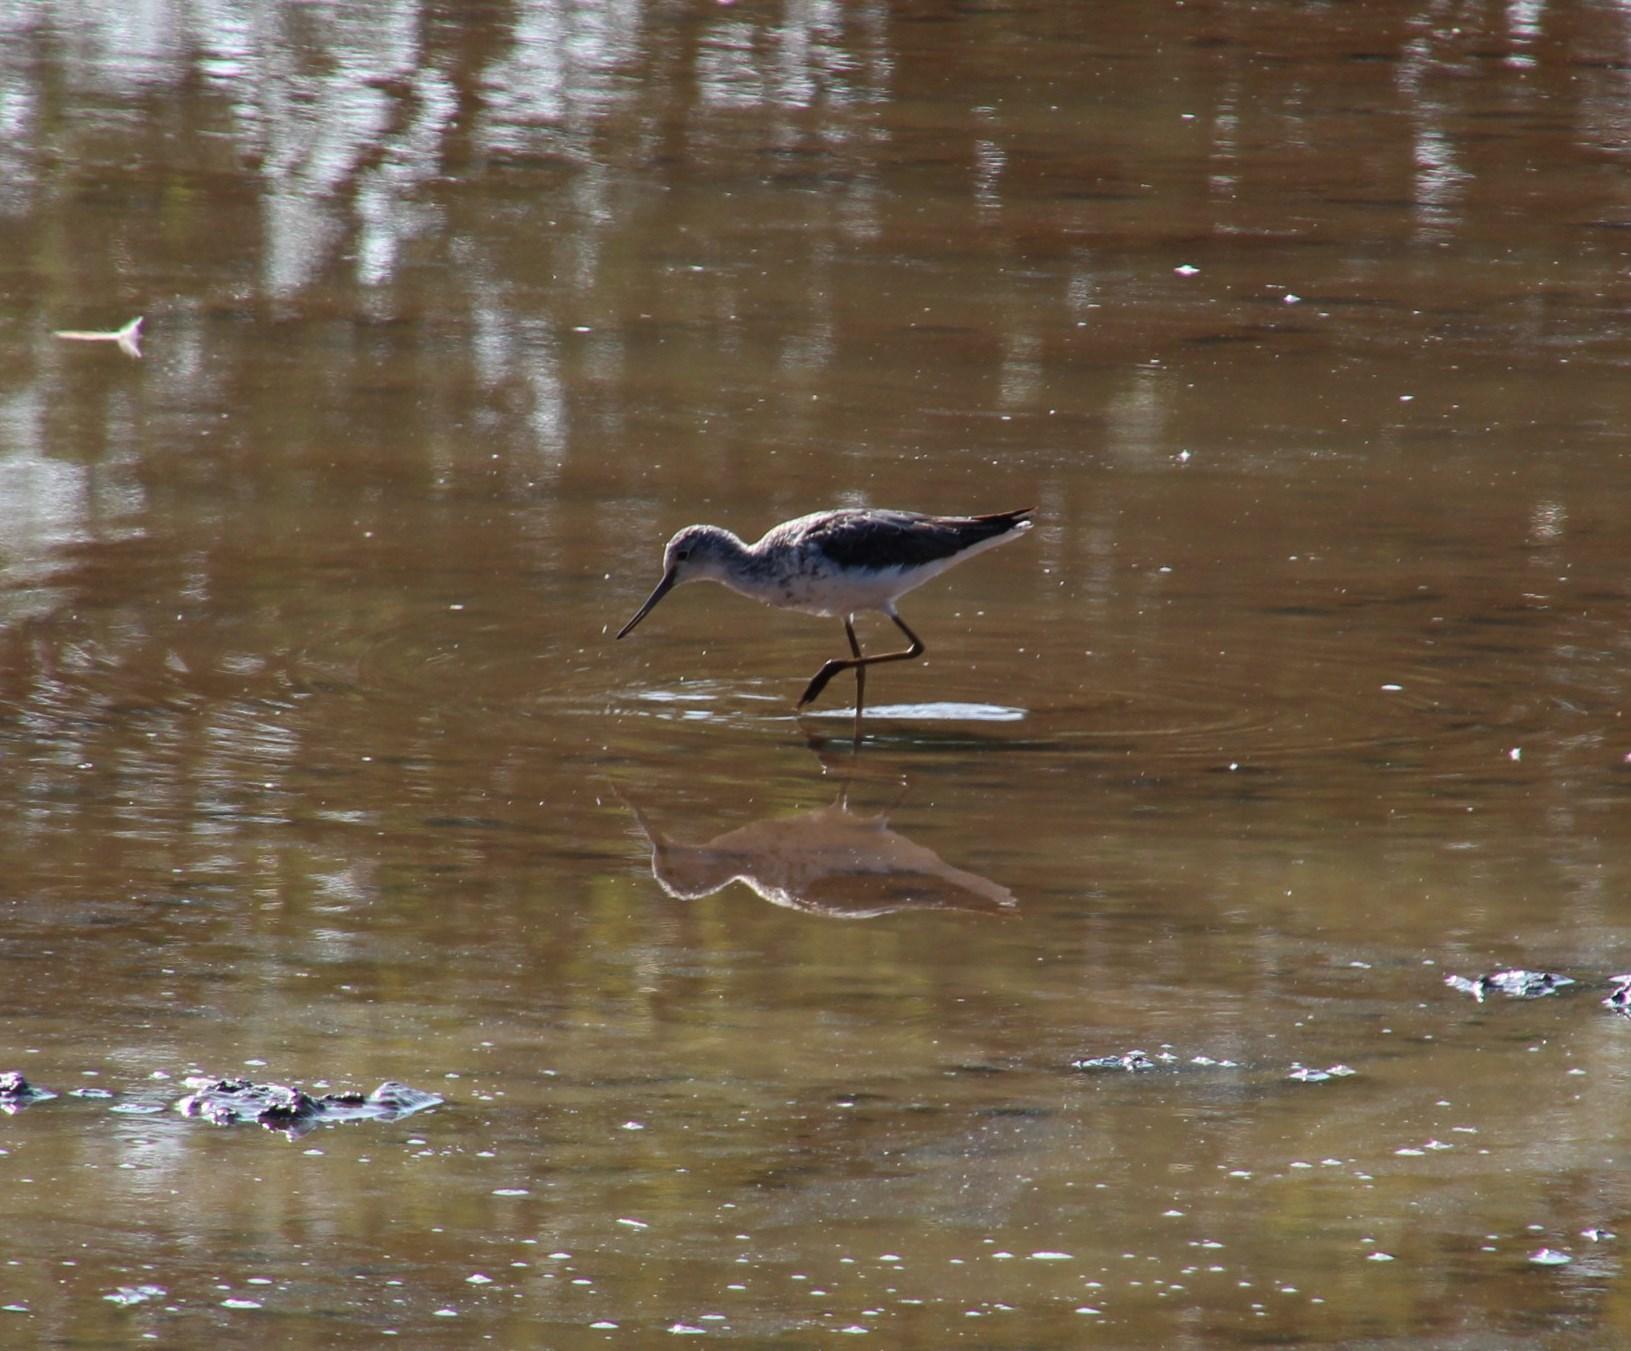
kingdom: Animalia
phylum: Chordata
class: Aves
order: Charadriiformes
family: Scolopacidae
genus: Tringa
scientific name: Tringa nebularia
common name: Common greenshank
